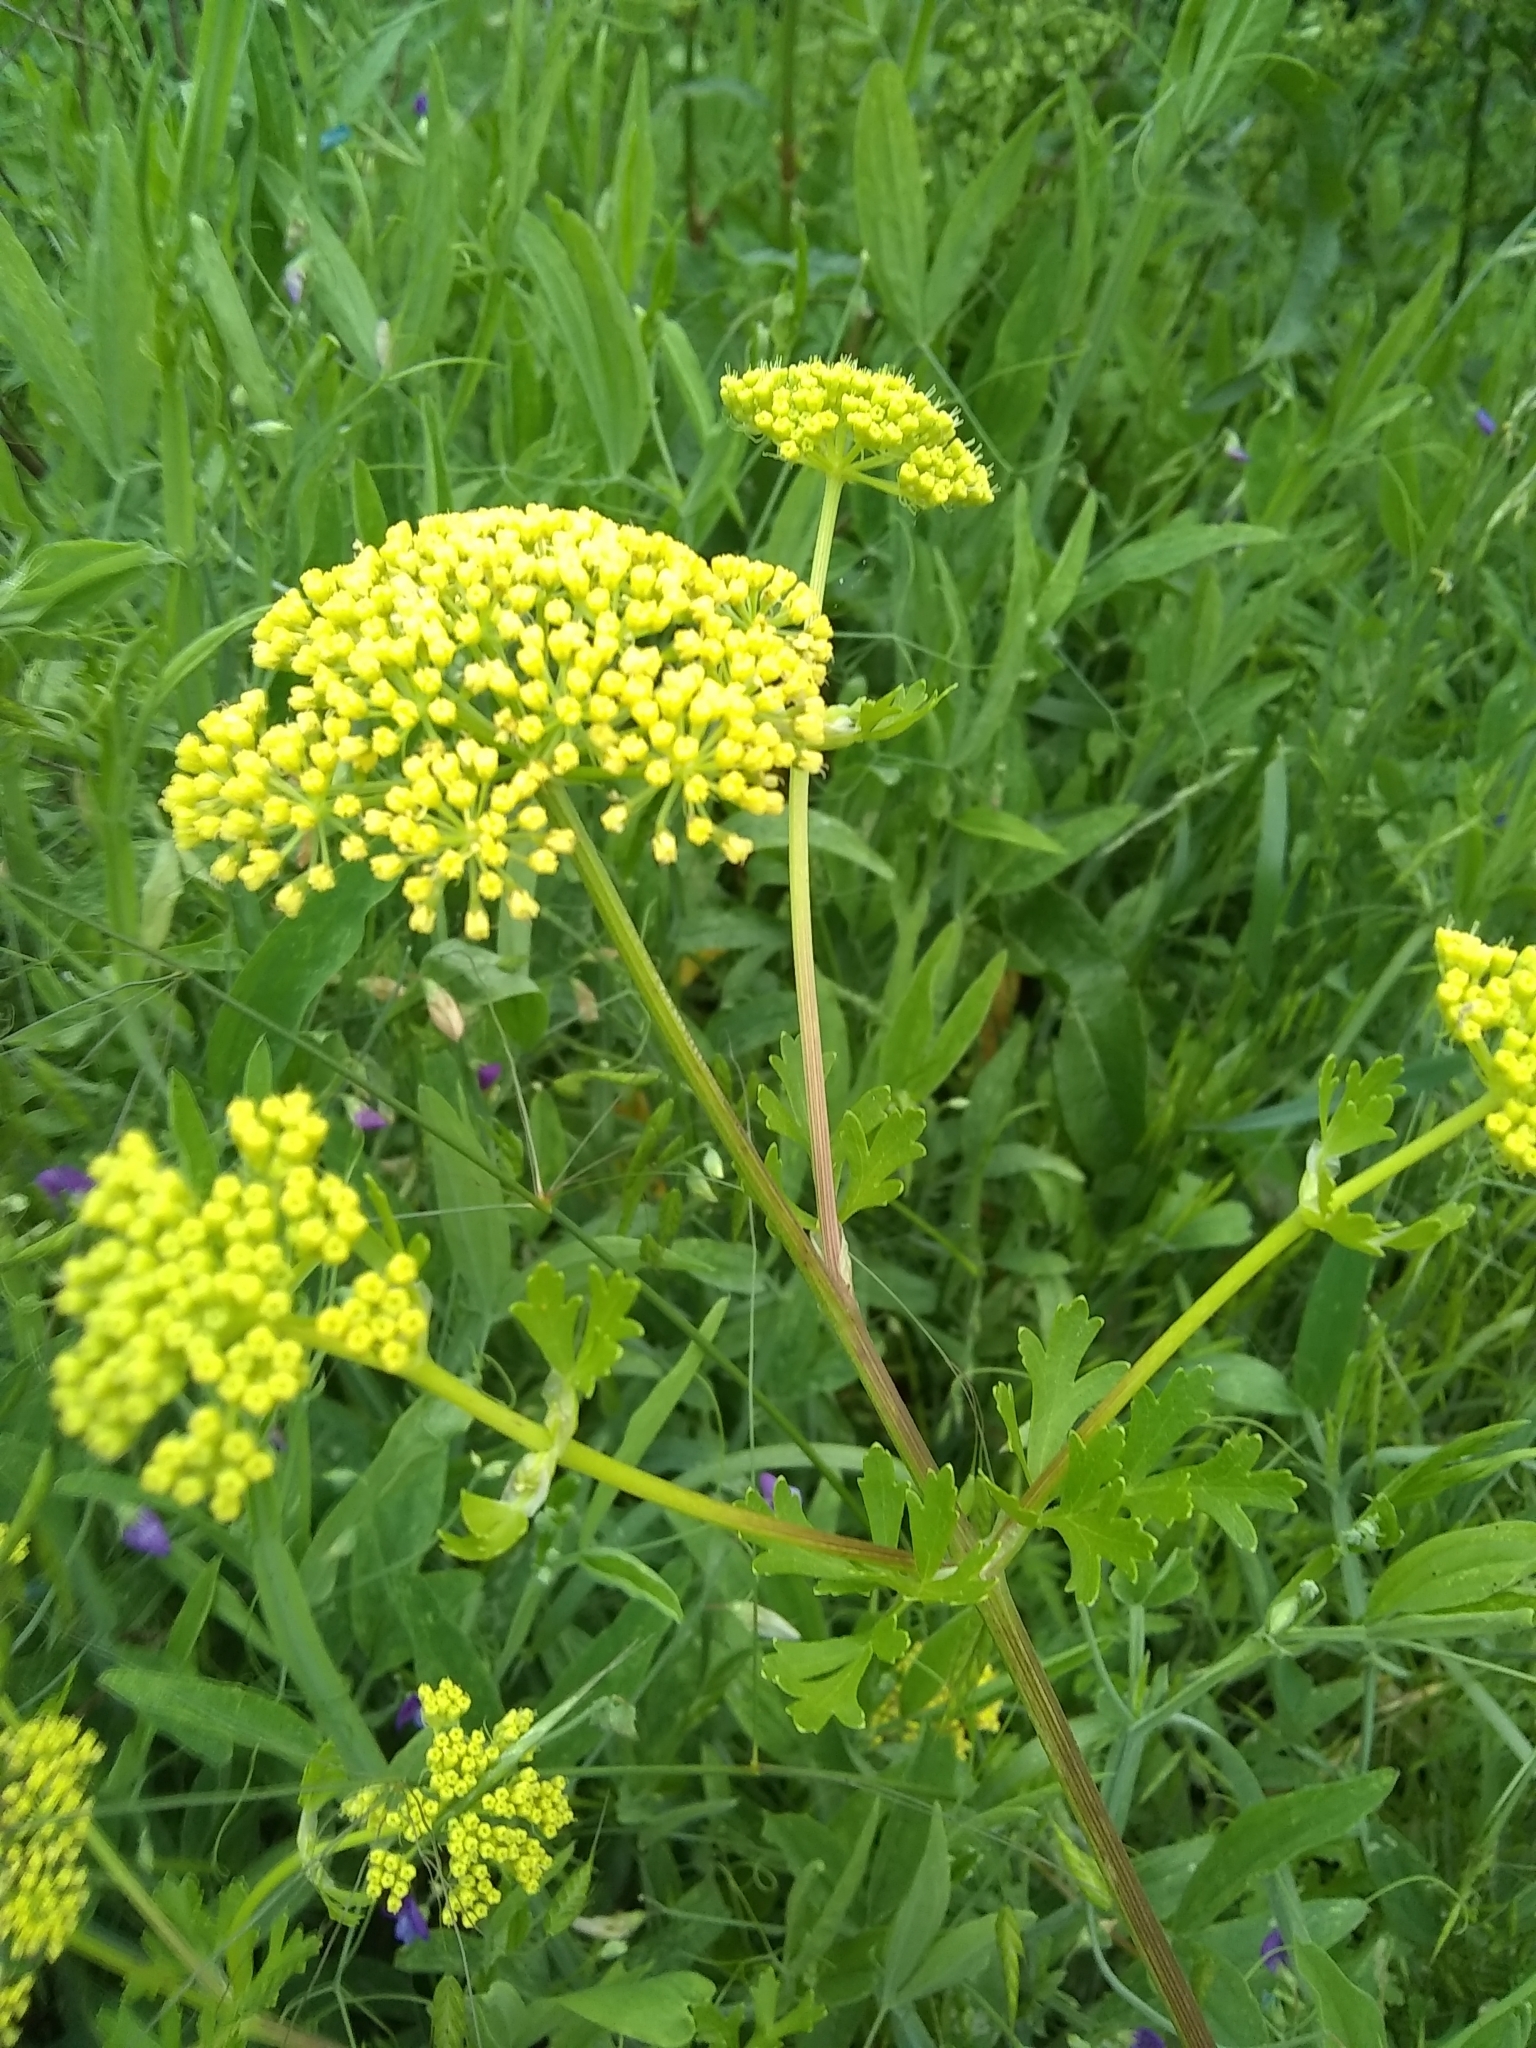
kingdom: Plantae
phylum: Tracheophyta
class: Magnoliopsida
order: Apiales
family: Apiaceae
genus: Polytaenia
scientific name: Polytaenia texana
